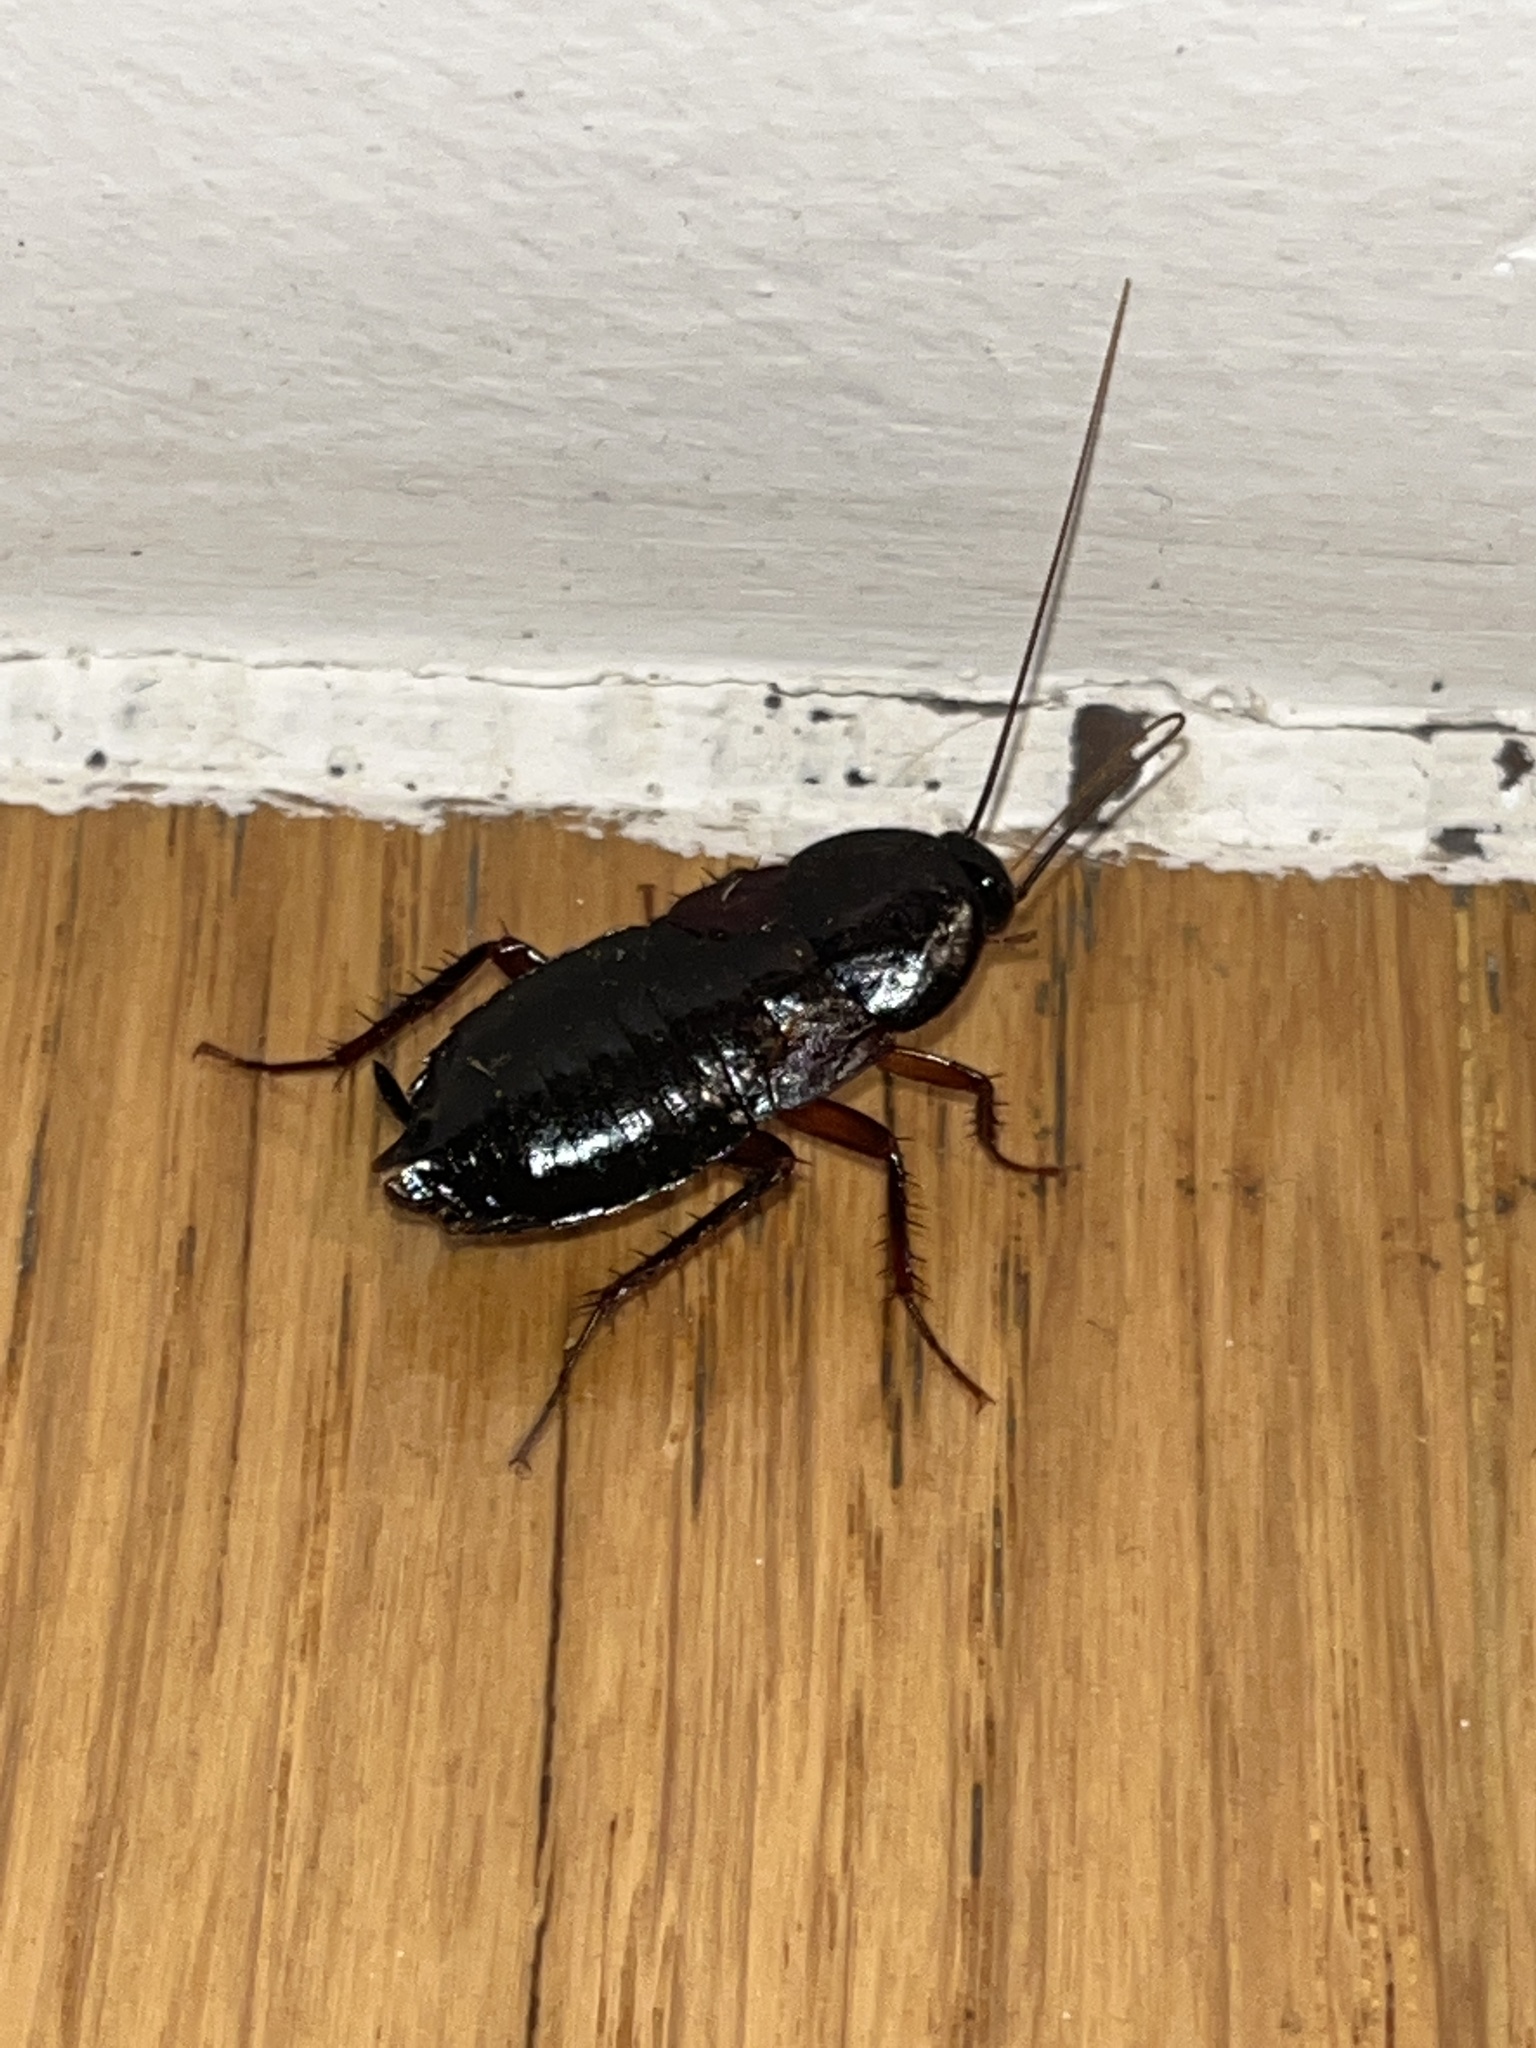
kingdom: Animalia
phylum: Arthropoda
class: Insecta
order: Blattodea
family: Blattidae
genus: Blatta
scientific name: Blatta orientalis
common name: Oriental cockroach
